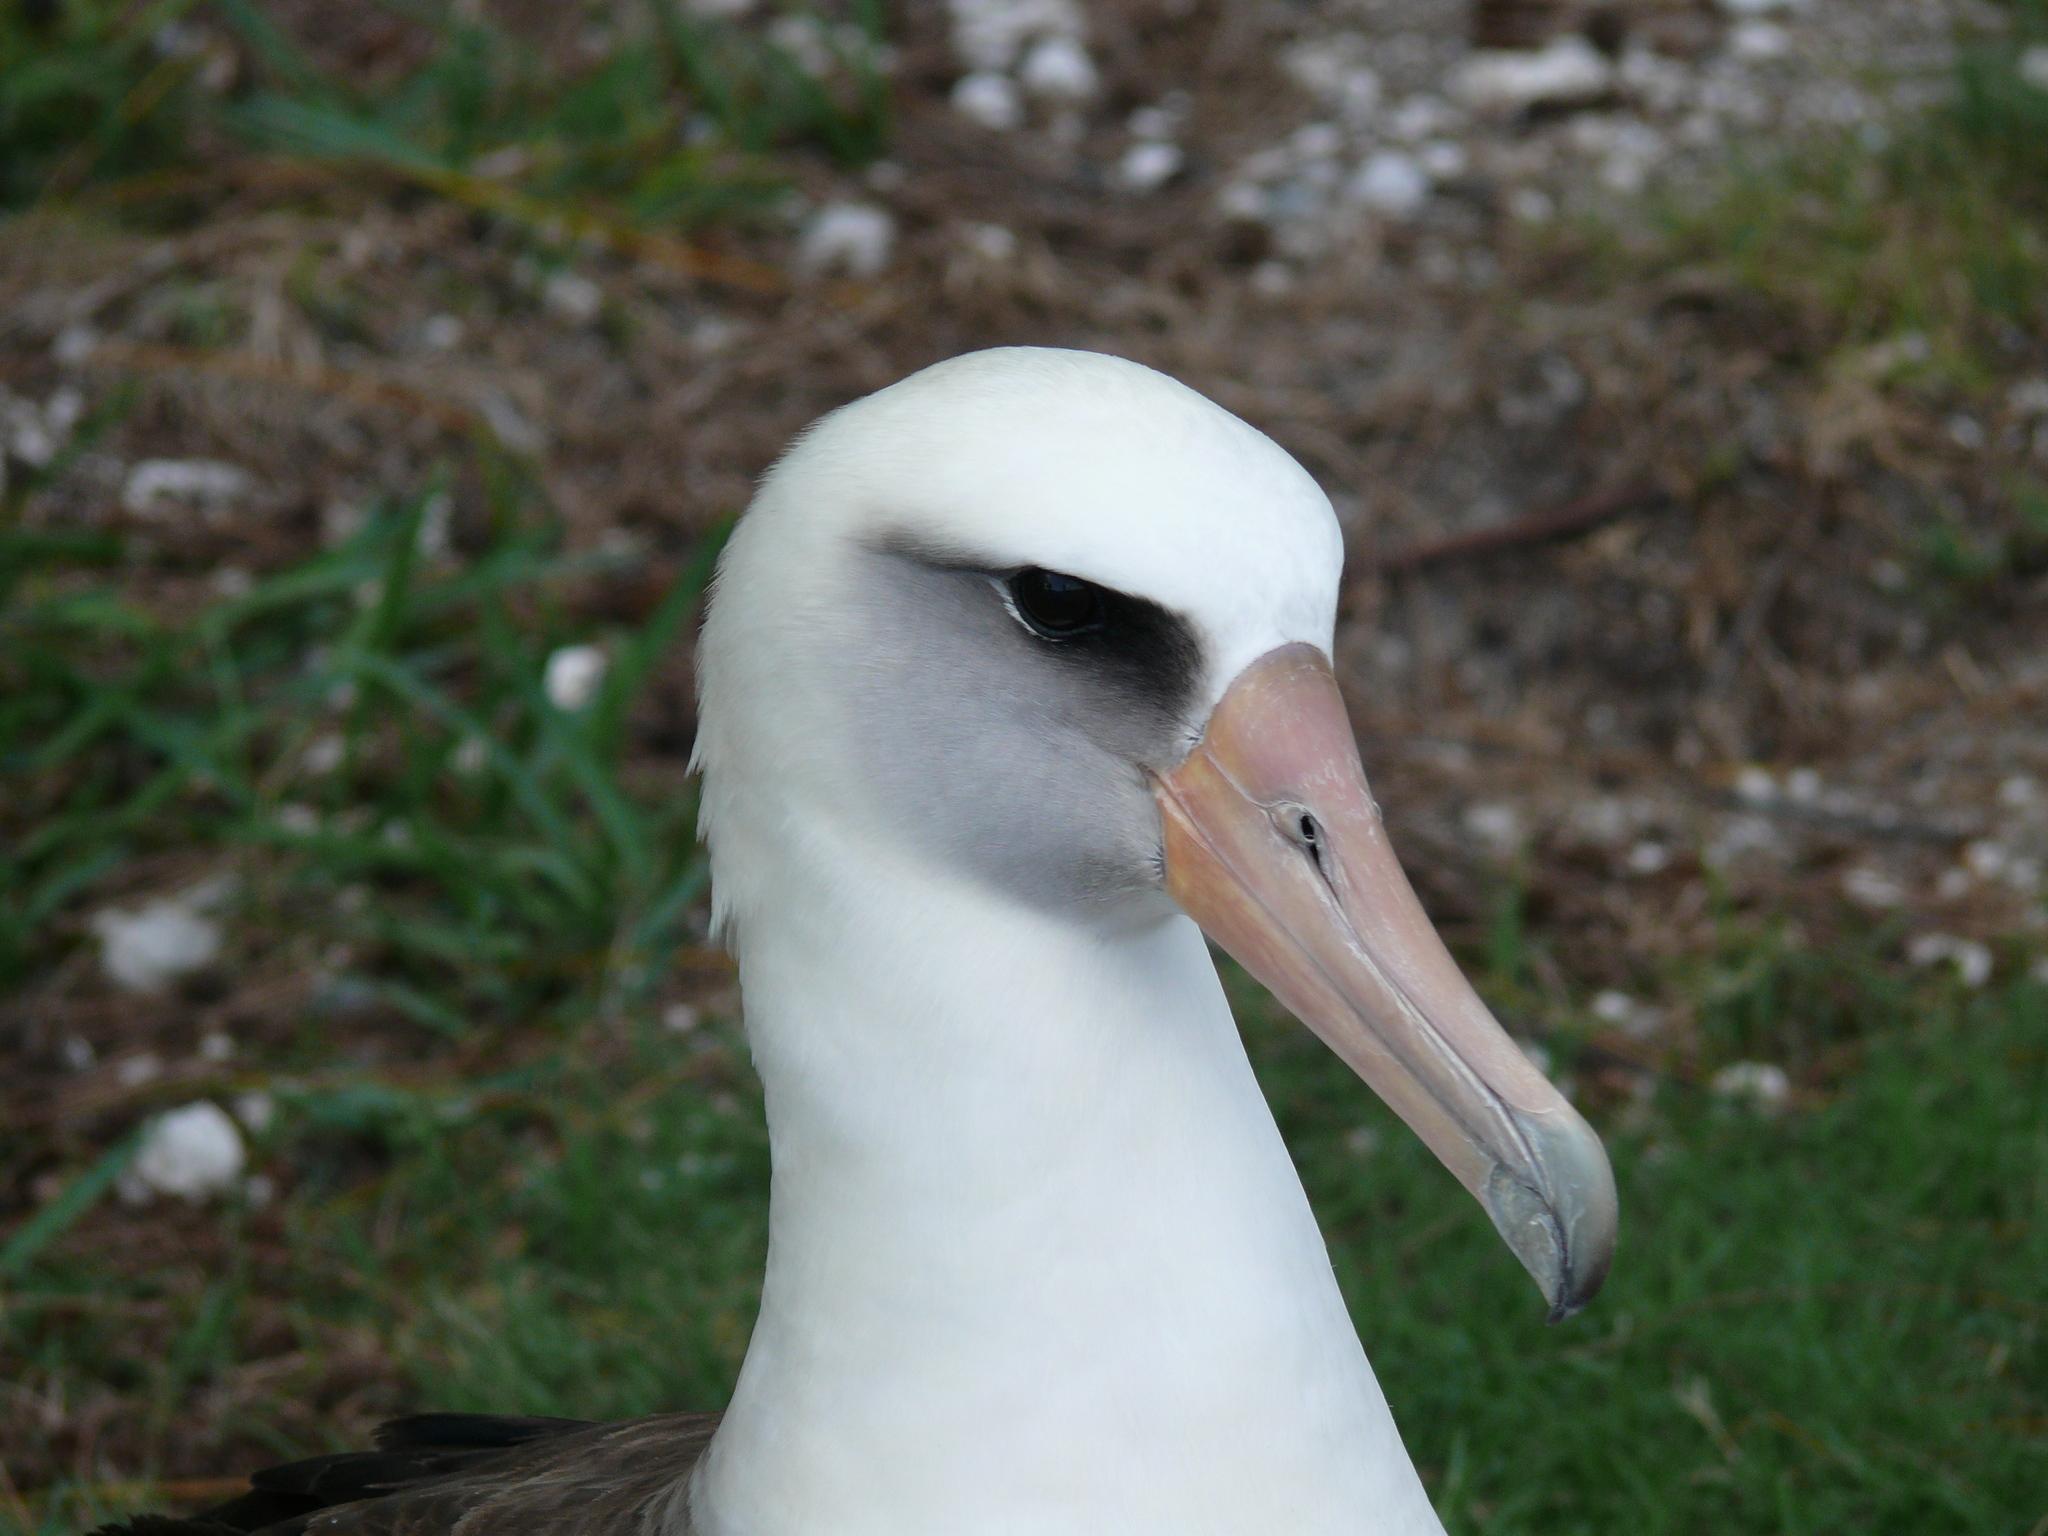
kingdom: Animalia
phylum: Chordata
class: Aves
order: Procellariiformes
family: Diomedeidae
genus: Phoebastria
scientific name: Phoebastria immutabilis
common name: Laysan albatross
